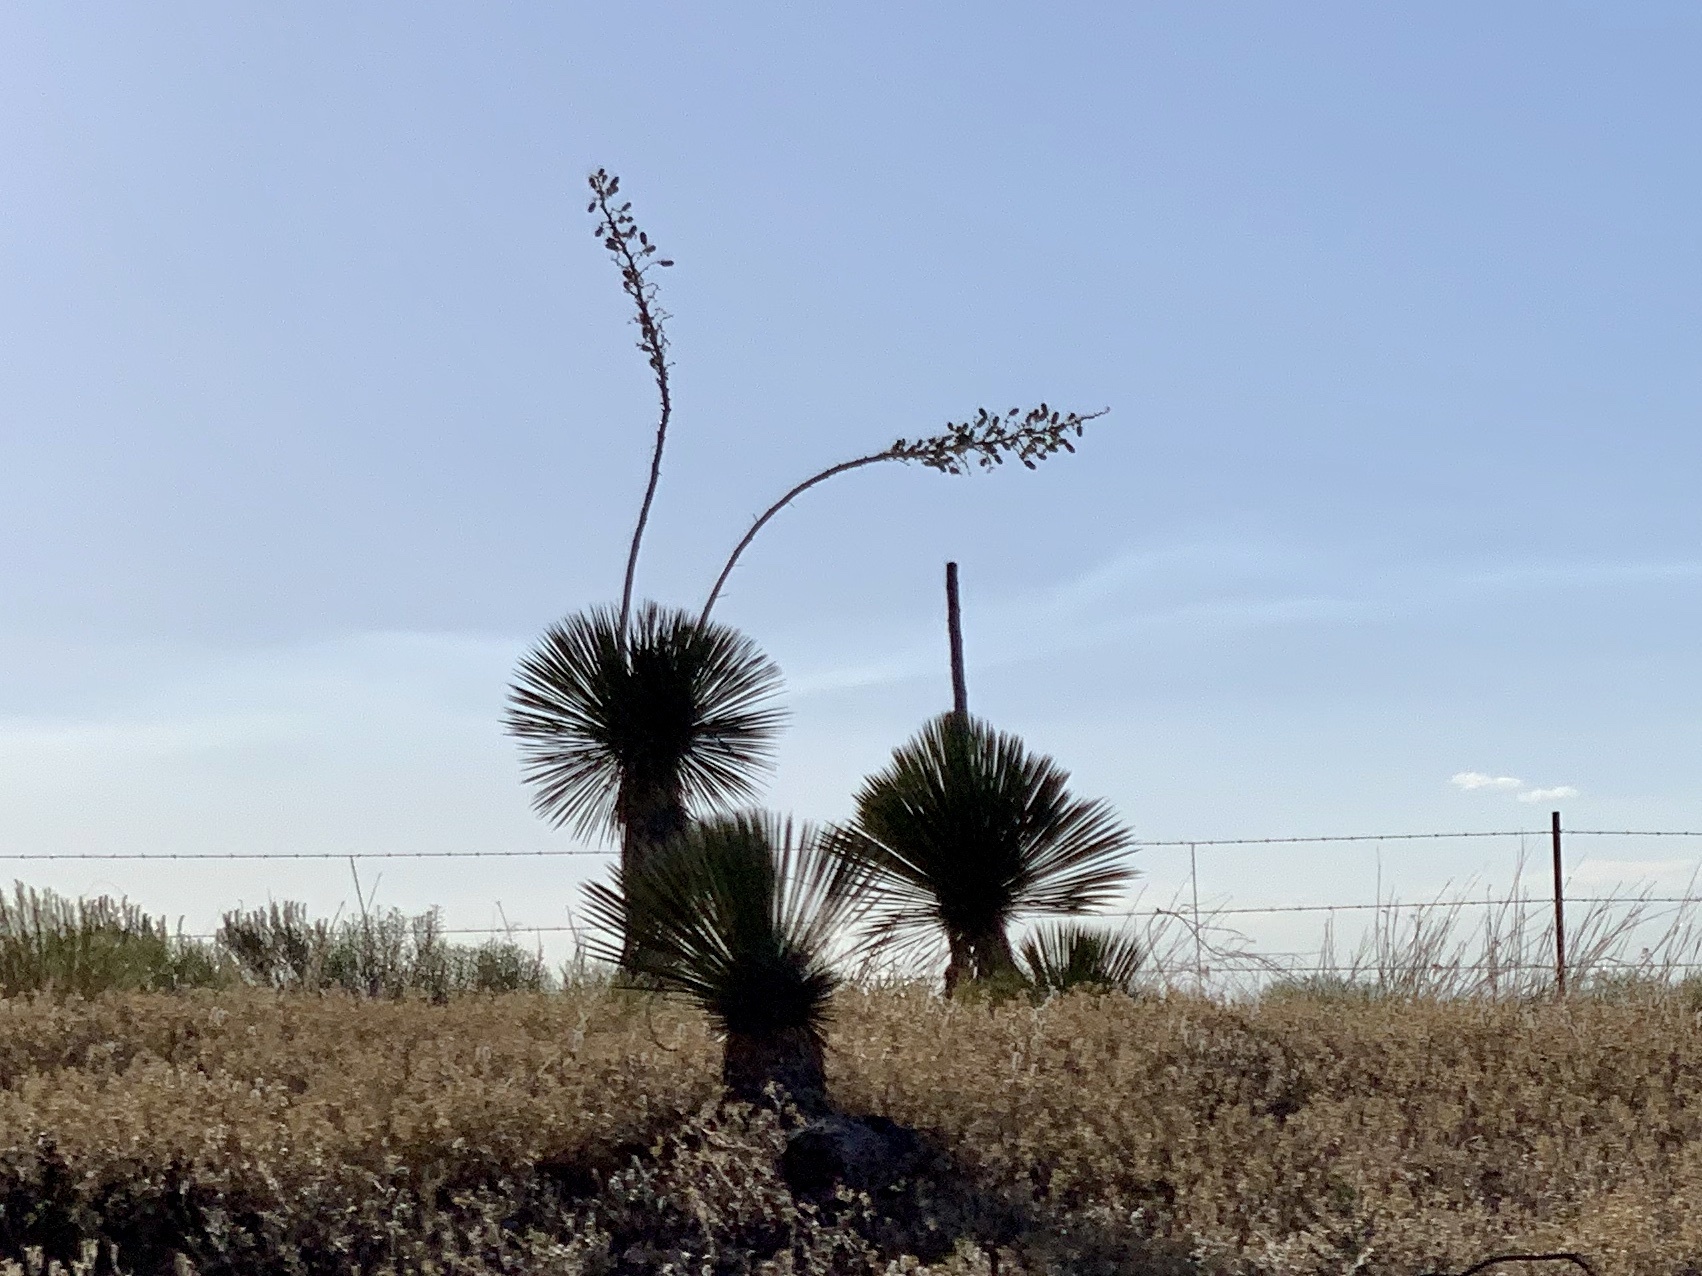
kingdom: Plantae
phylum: Tracheophyta
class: Liliopsida
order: Asparagales
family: Asparagaceae
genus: Yucca
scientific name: Yucca elata
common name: Palmella
